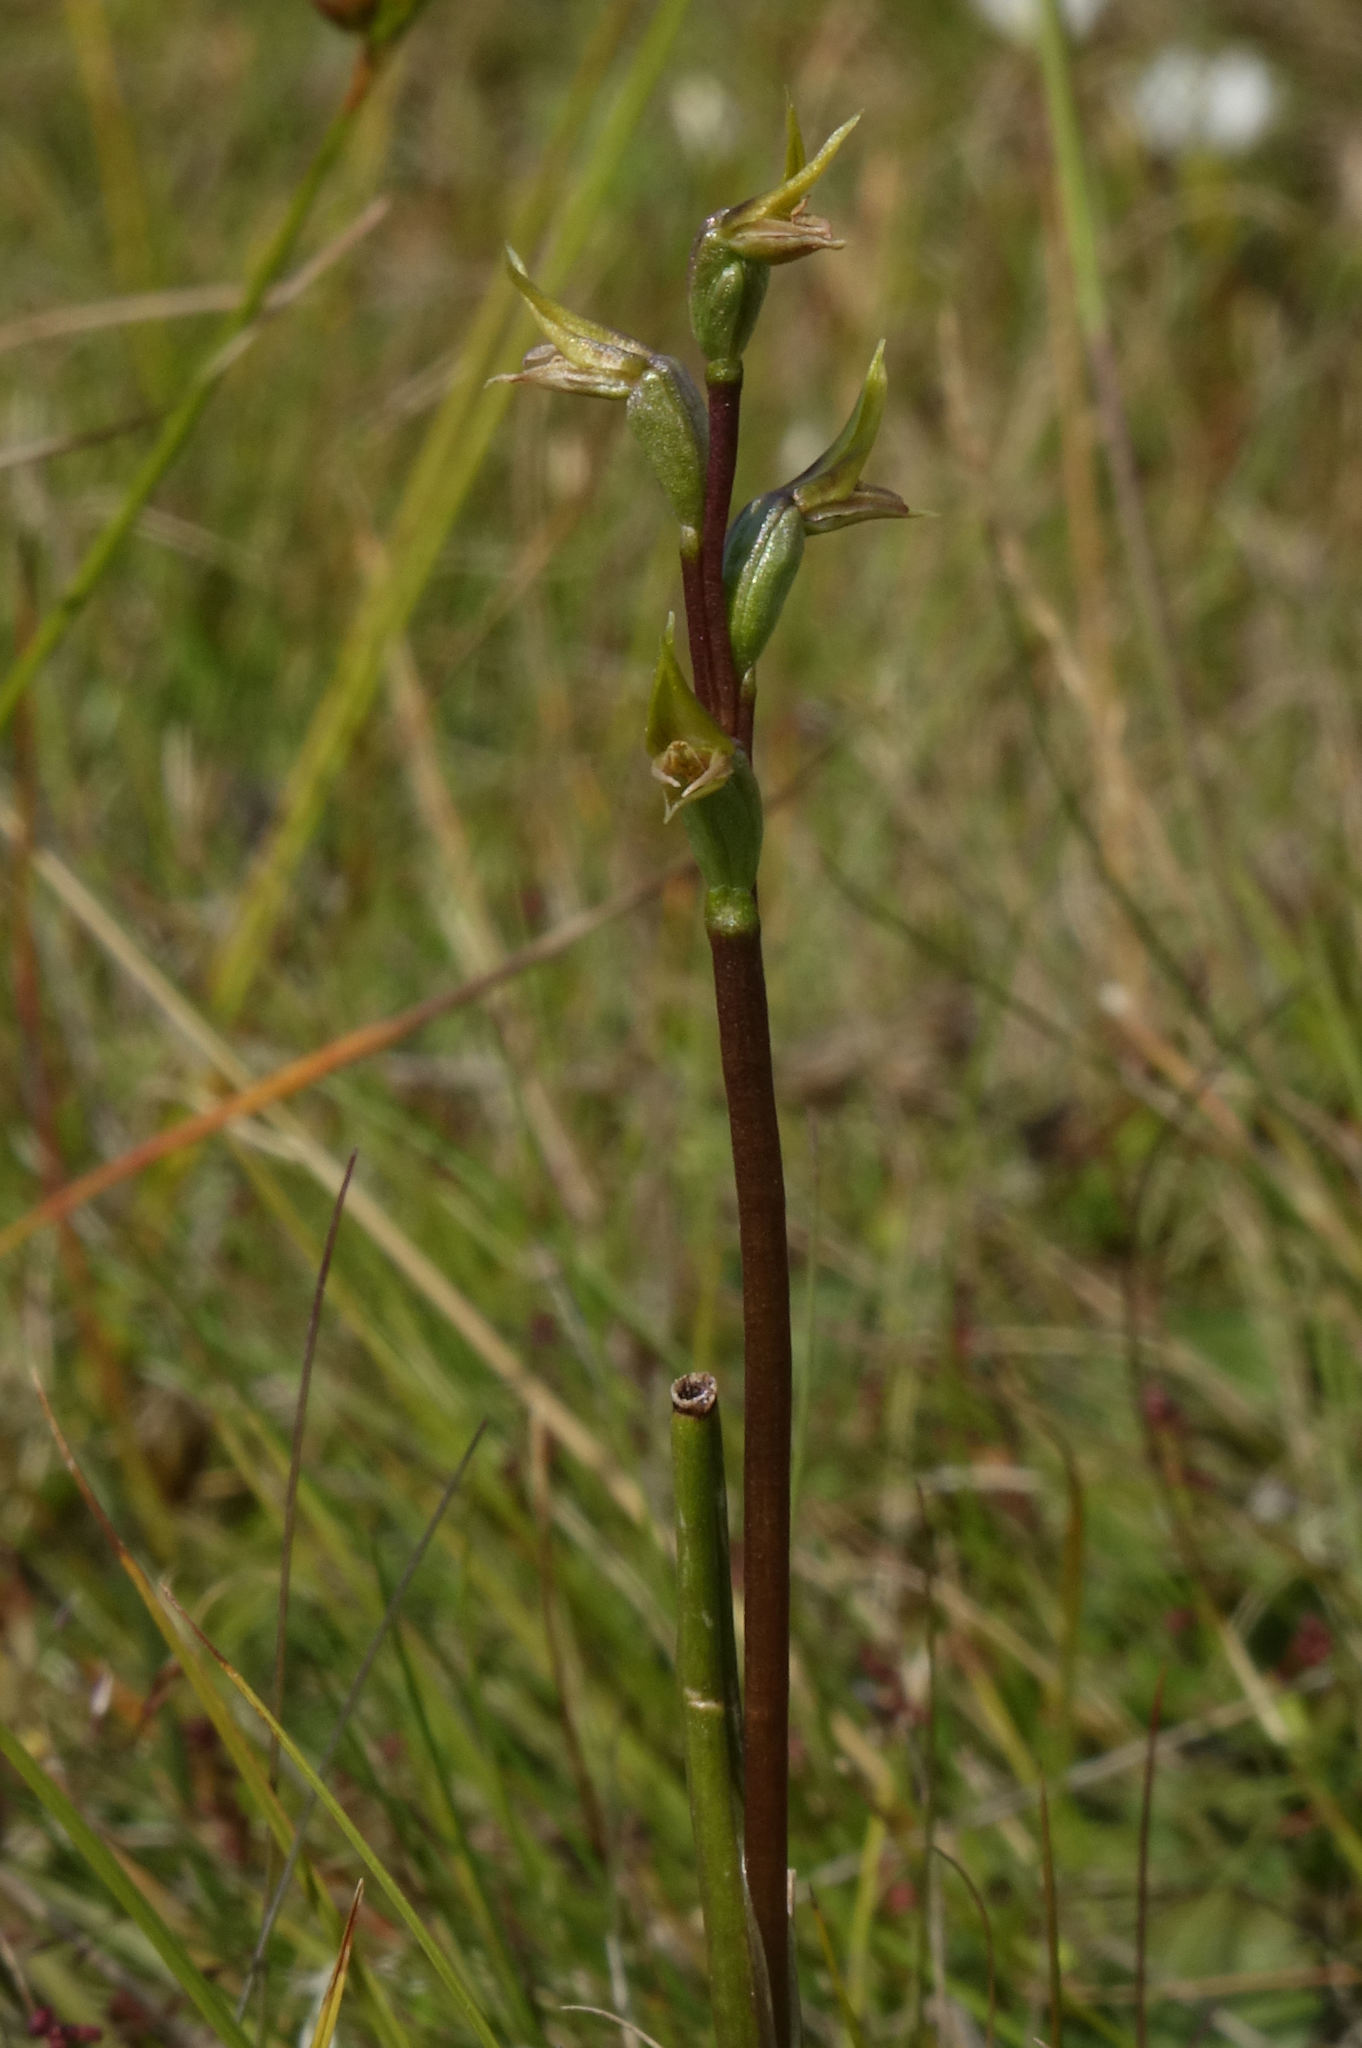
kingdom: Plantae
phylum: Tracheophyta
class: Liliopsida
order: Asparagales
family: Orchidaceae
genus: Prasophyllum
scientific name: Prasophyllum colensoi
